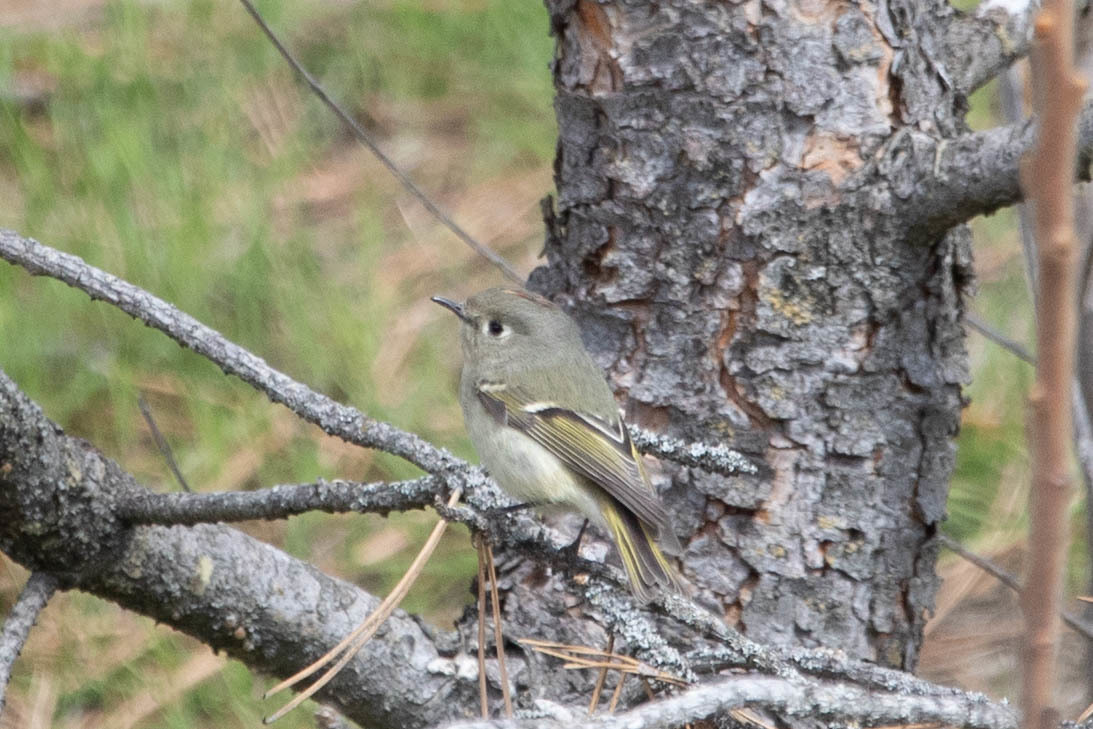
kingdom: Animalia
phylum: Chordata
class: Aves
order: Passeriformes
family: Regulidae
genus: Regulus
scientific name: Regulus calendula
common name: Ruby-crowned kinglet
